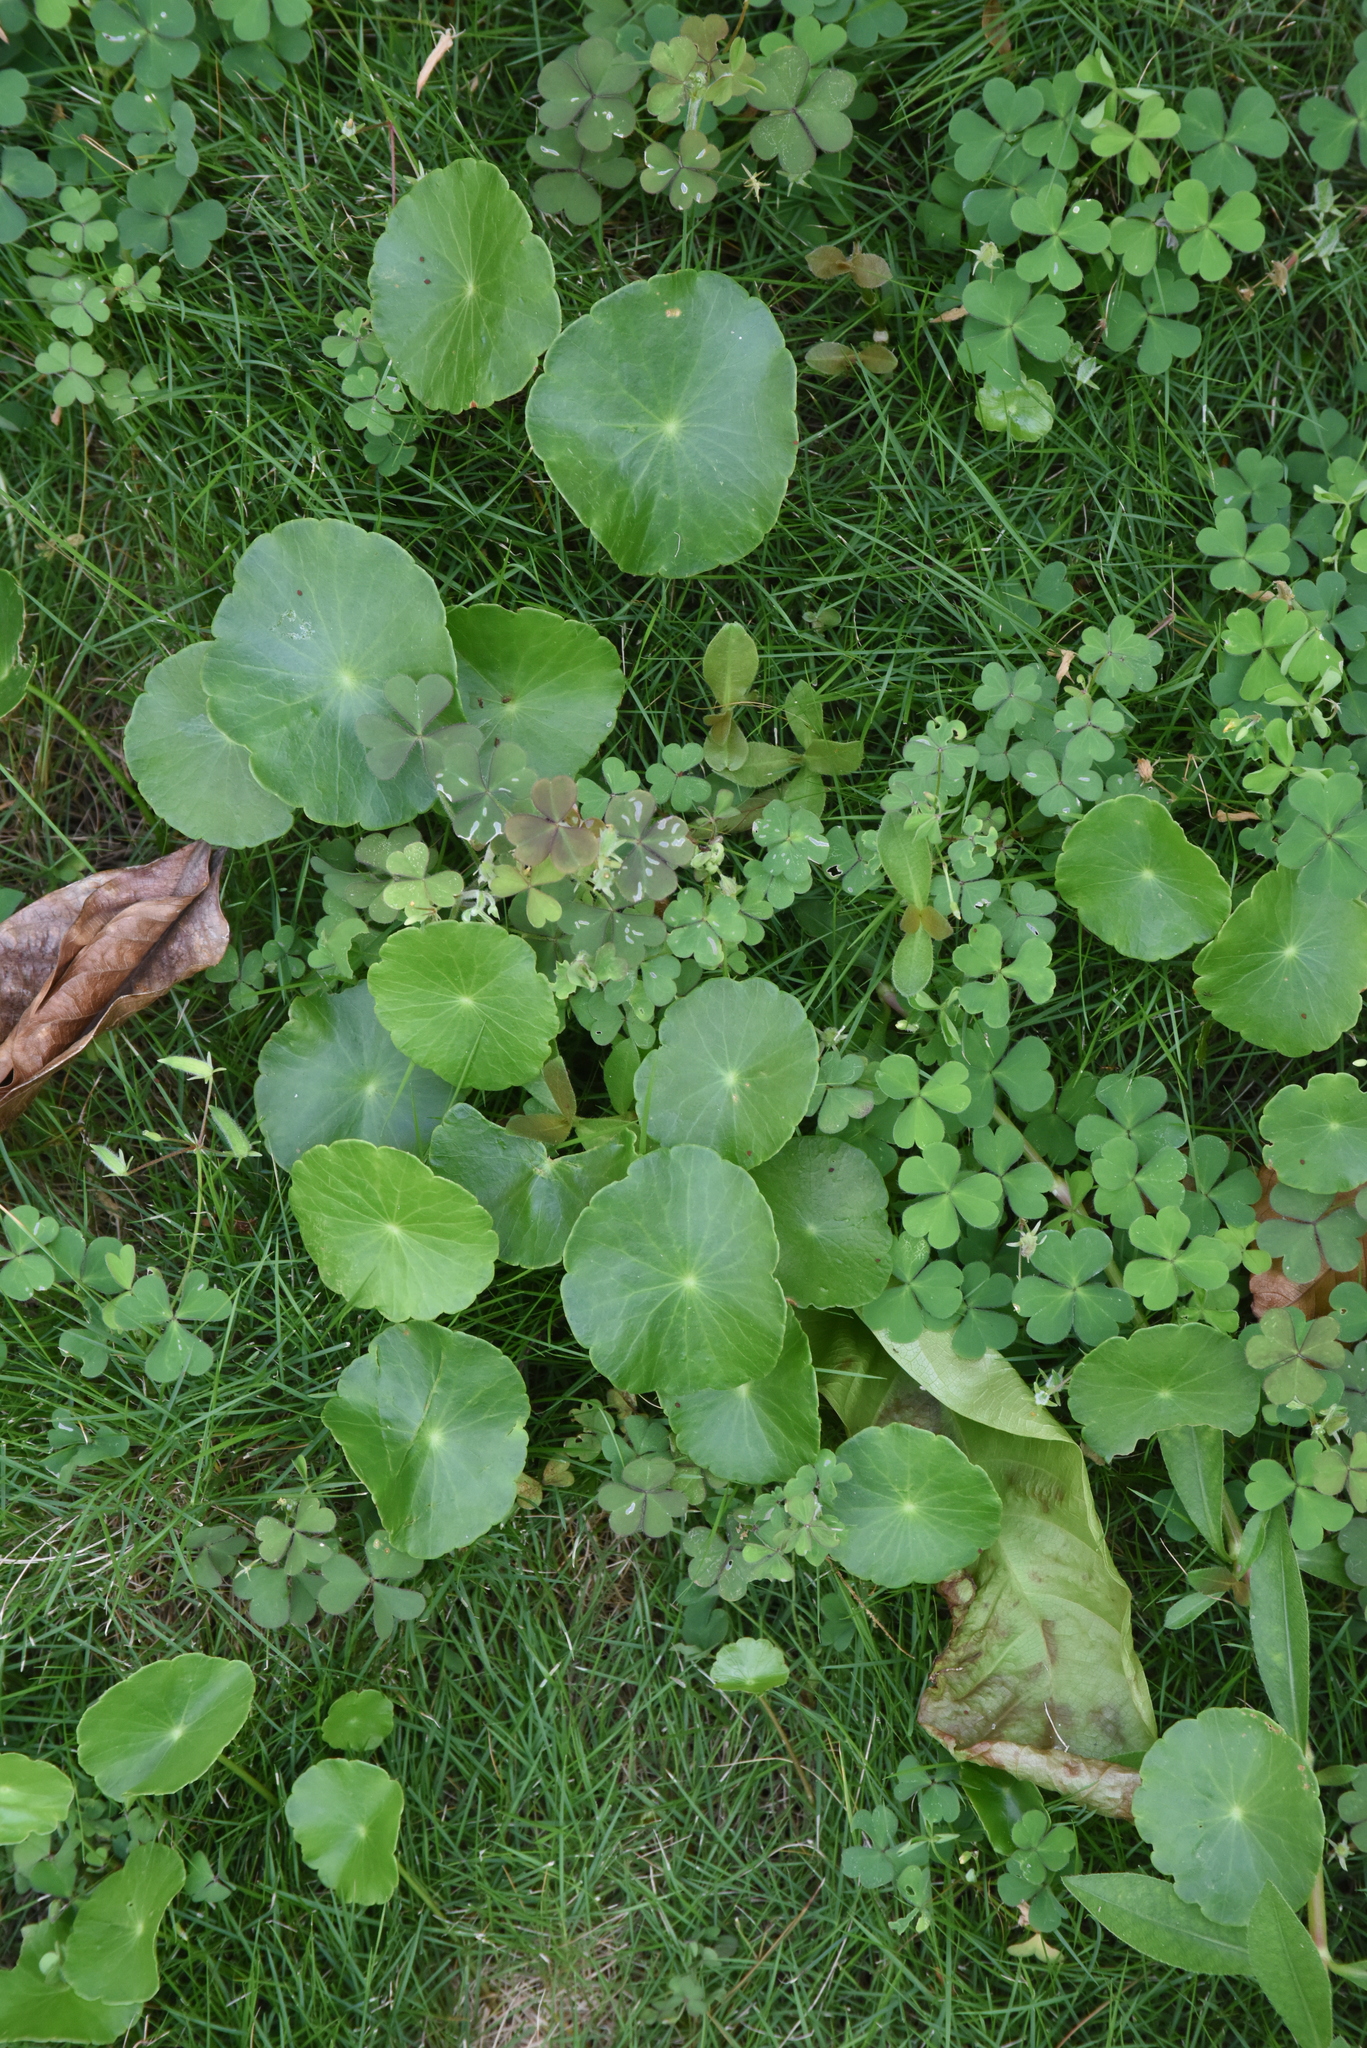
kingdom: Plantae
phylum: Tracheophyta
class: Magnoliopsida
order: Apiales
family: Araliaceae
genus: Hydrocotyle
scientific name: Hydrocotyle verticillata
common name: Whorled marshpennywort
